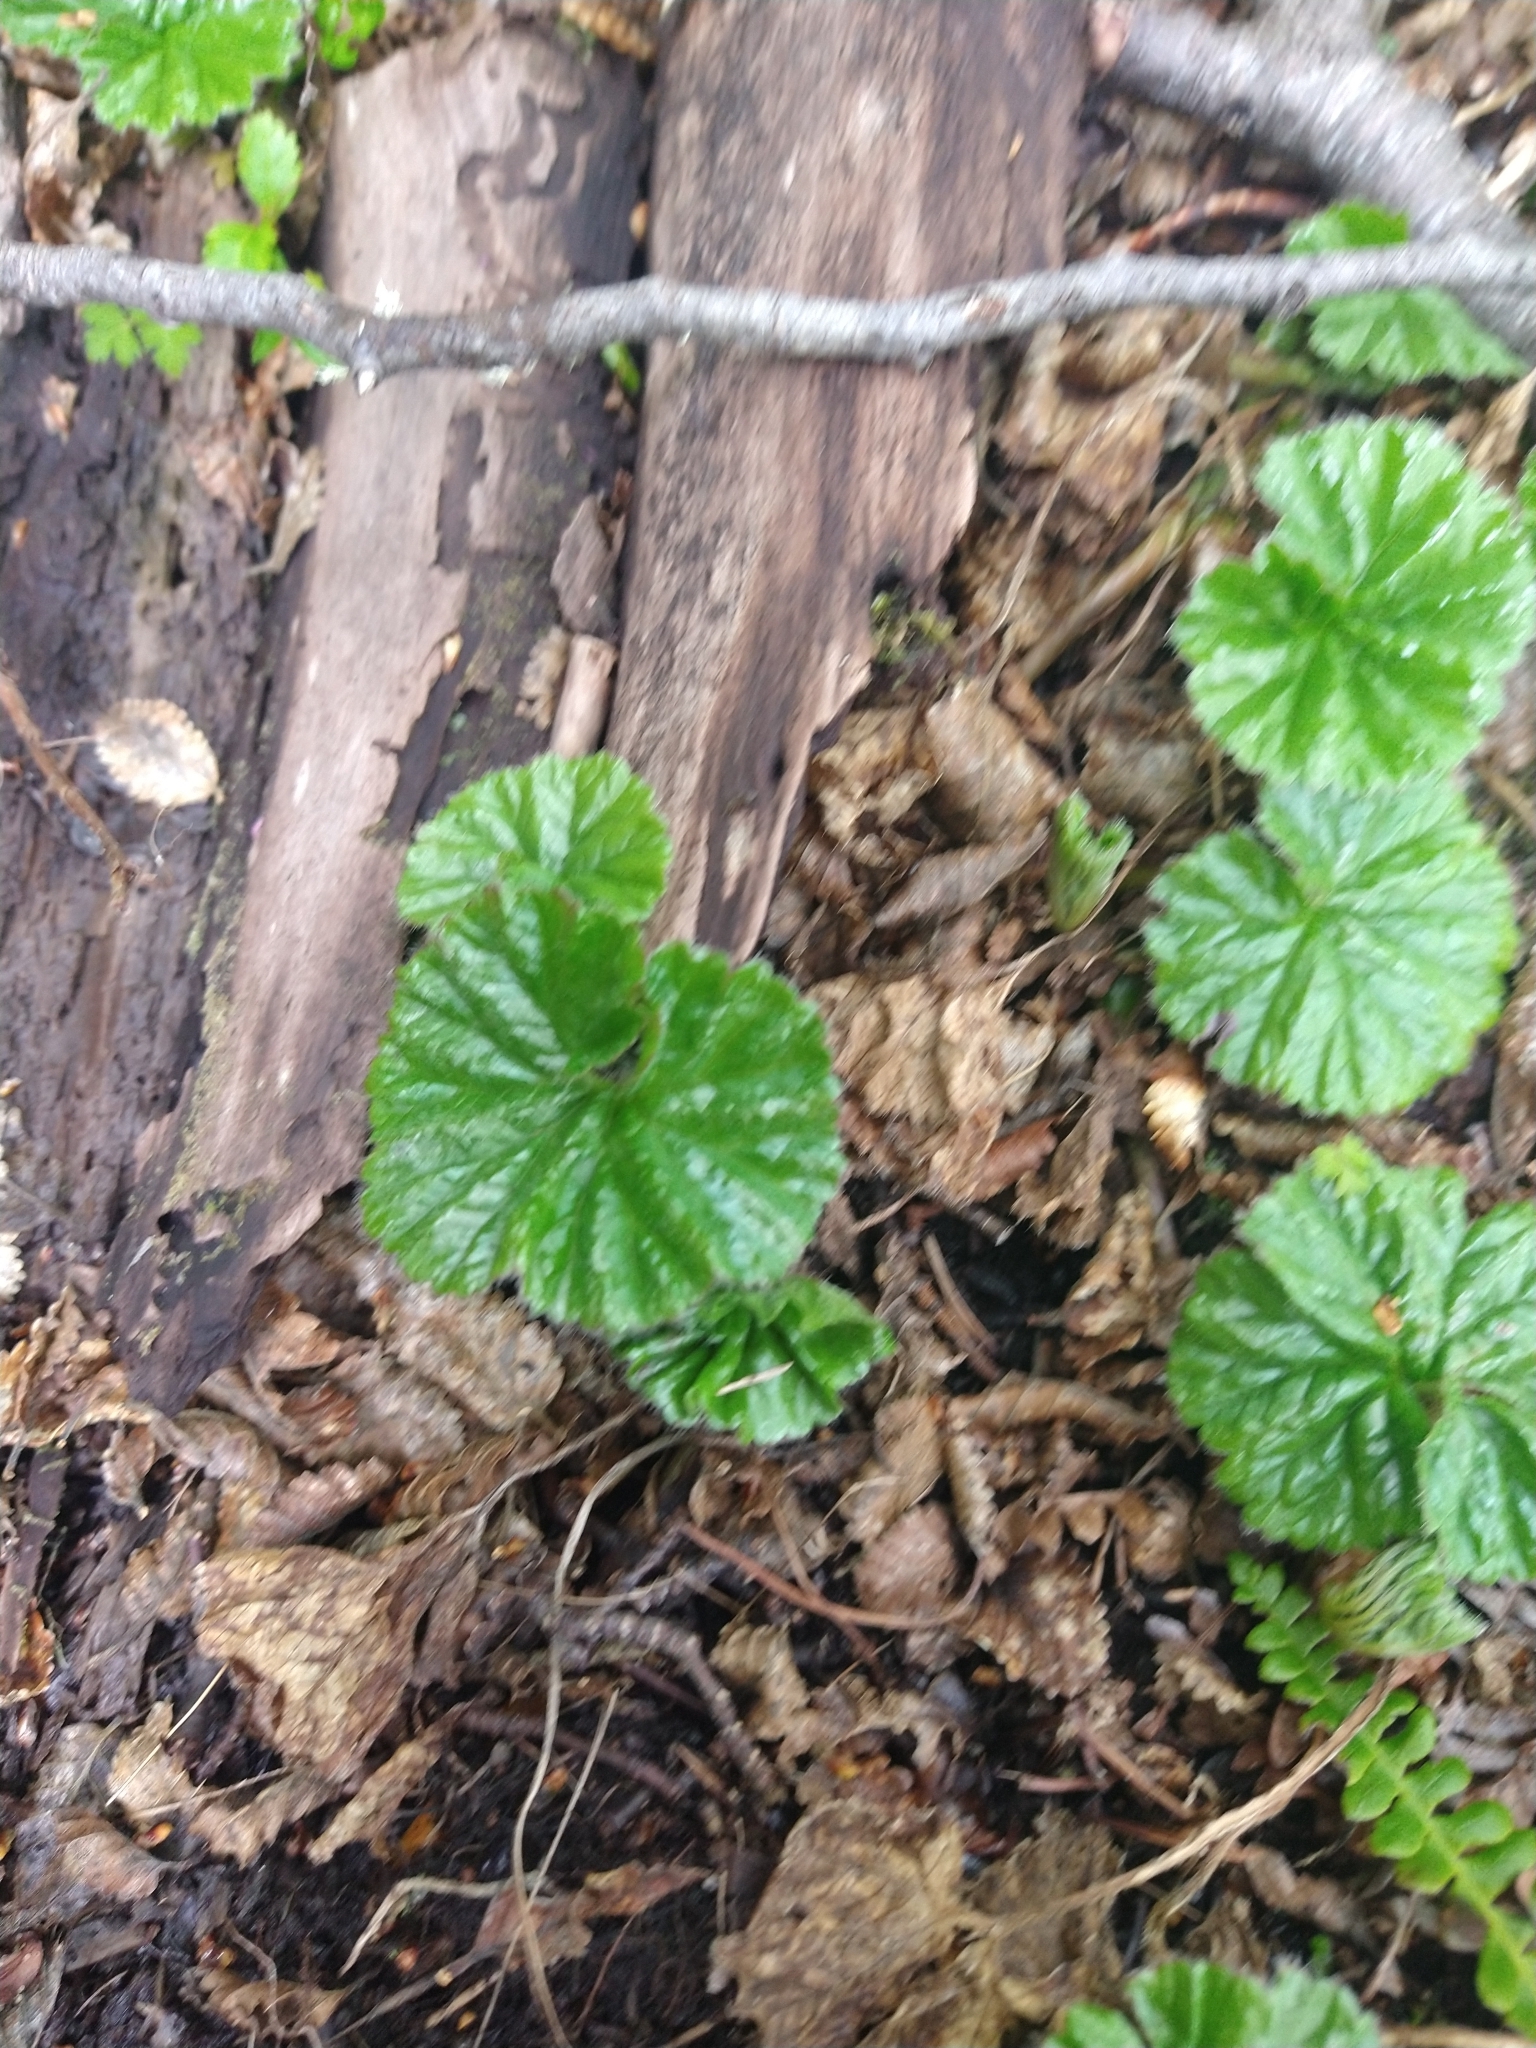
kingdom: Plantae
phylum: Tracheophyta
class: Magnoliopsida
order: Gunnerales
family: Gunneraceae
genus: Gunnera
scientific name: Gunnera magellanica
